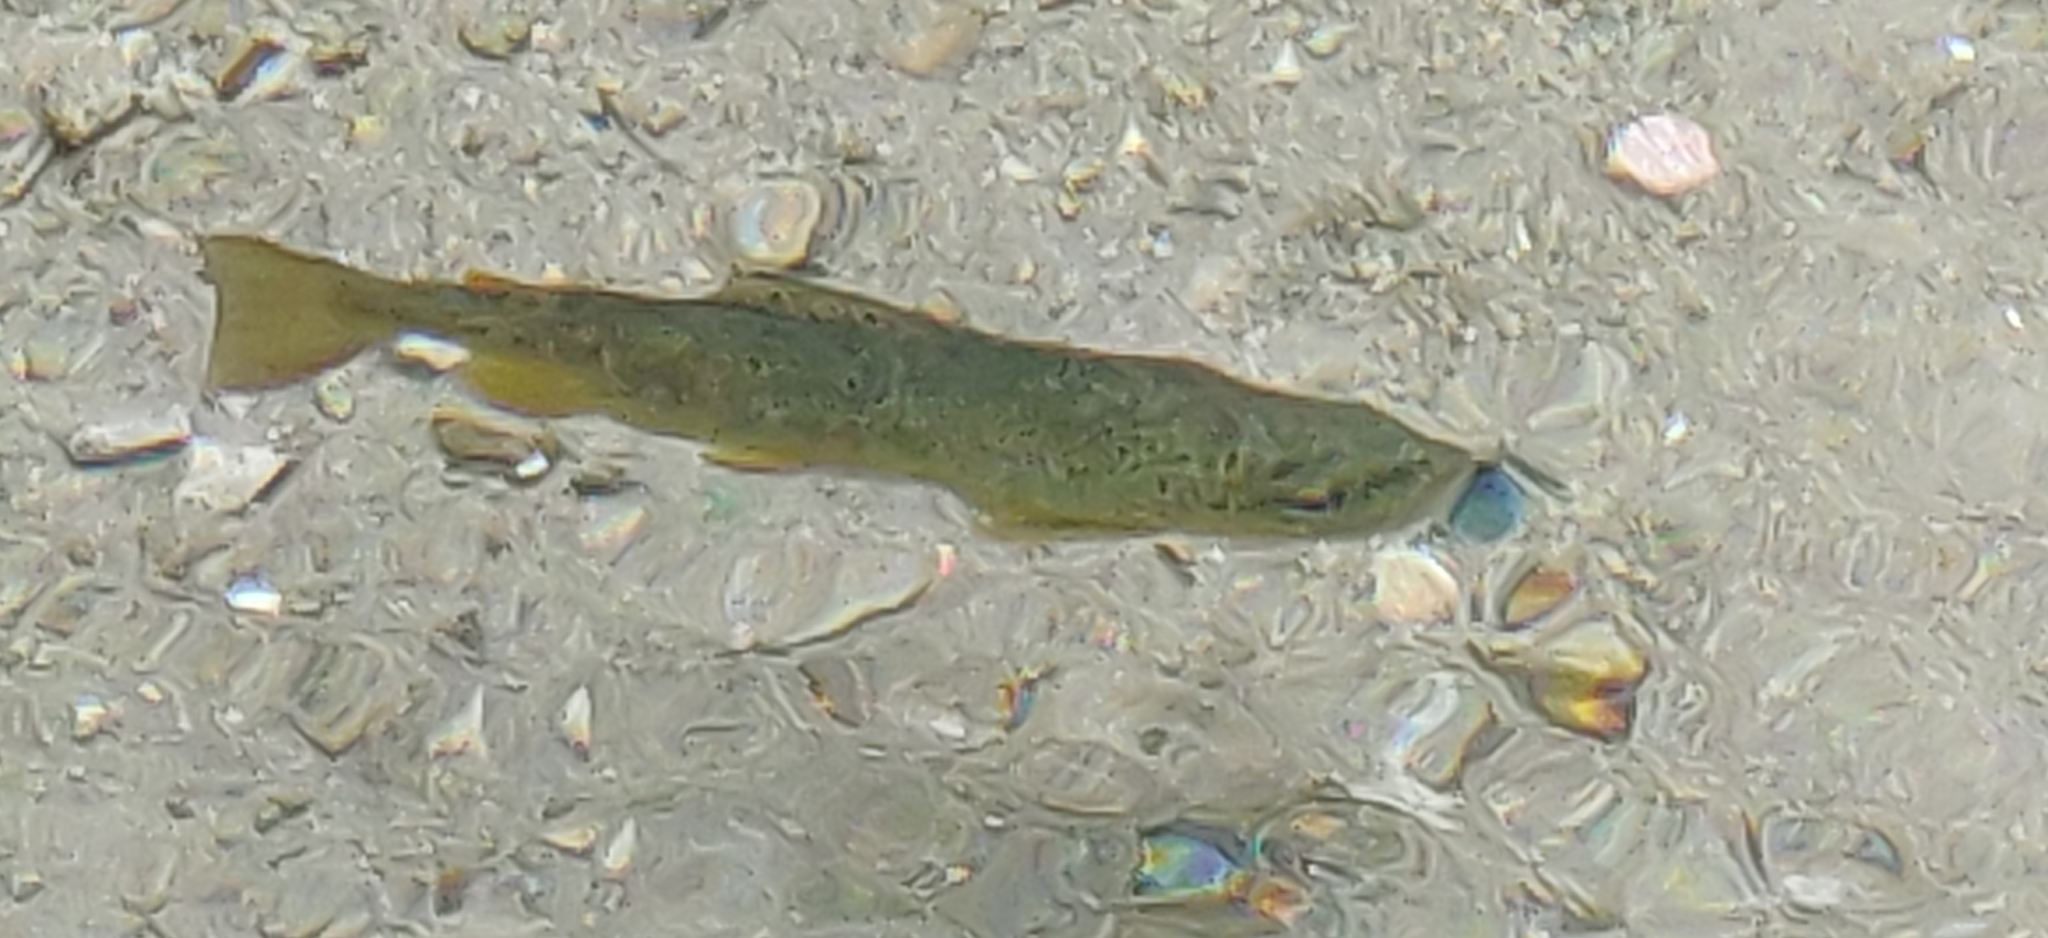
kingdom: Animalia
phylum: Chordata
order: Salmoniformes
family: Salmonidae
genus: Salmo
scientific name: Salmo trutta
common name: Brown trout
